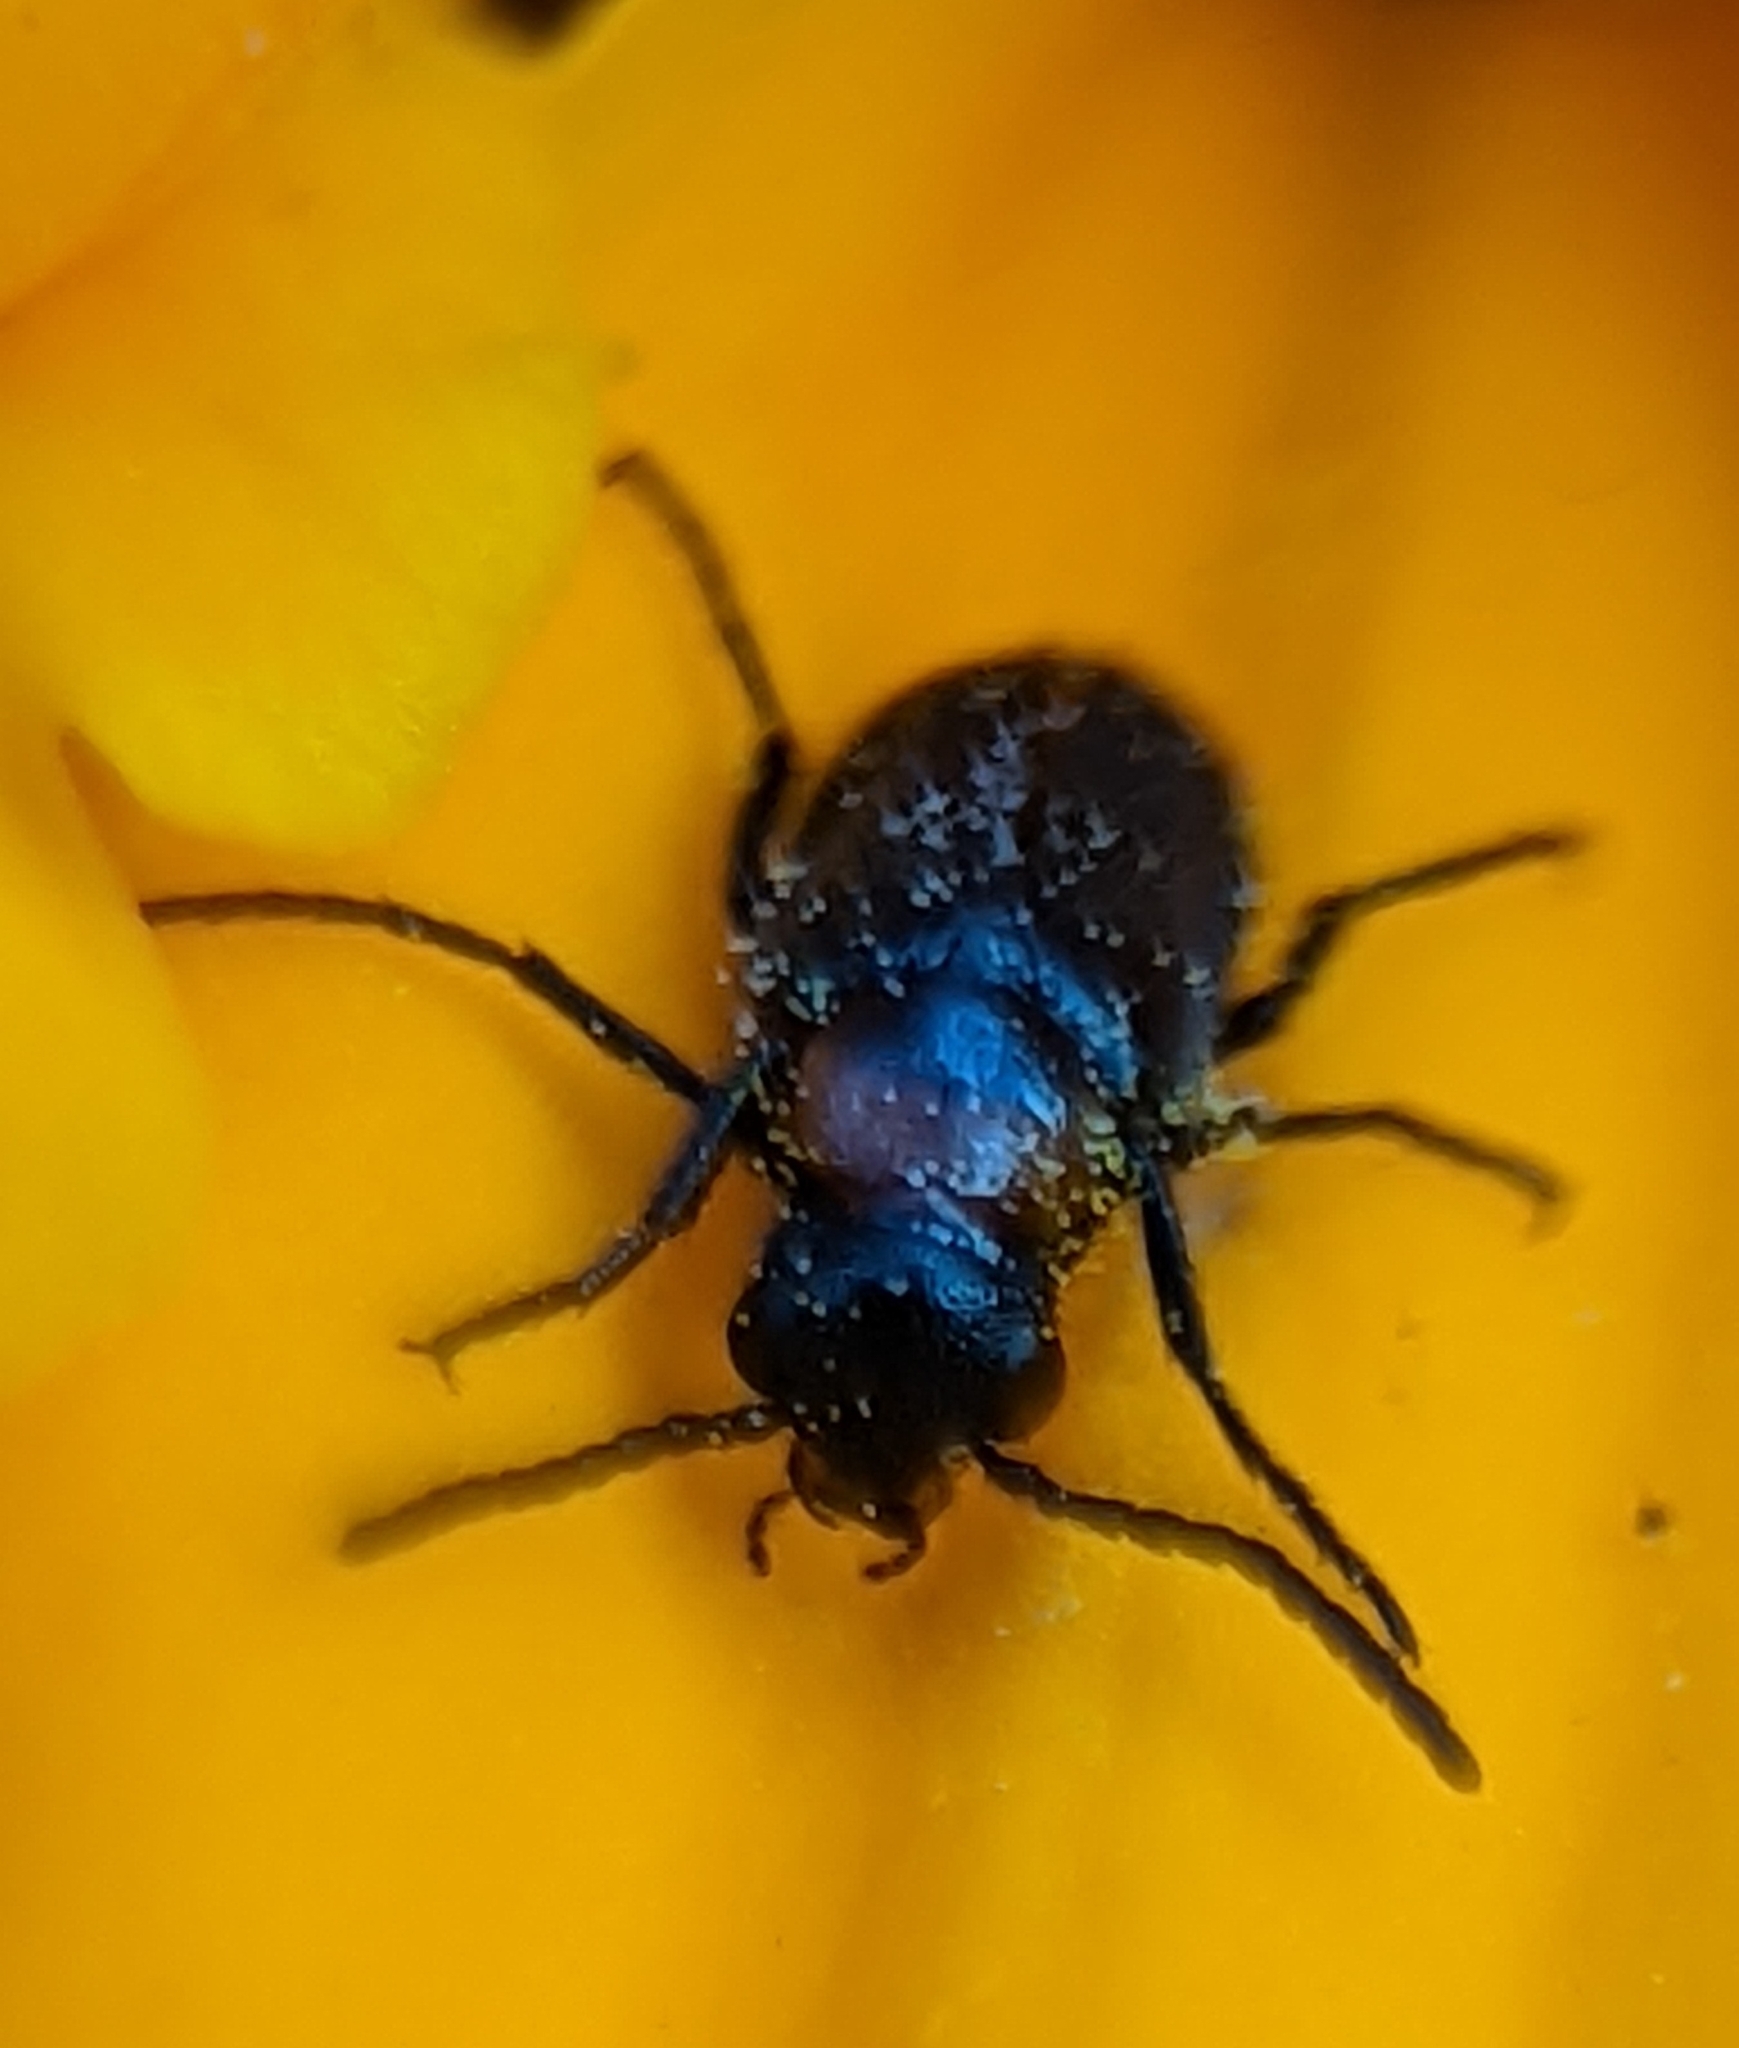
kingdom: Animalia
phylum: Arthropoda
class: Insecta
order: Coleoptera
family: Meloidae
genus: Nemognatha
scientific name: Nemognatha nemorensis
